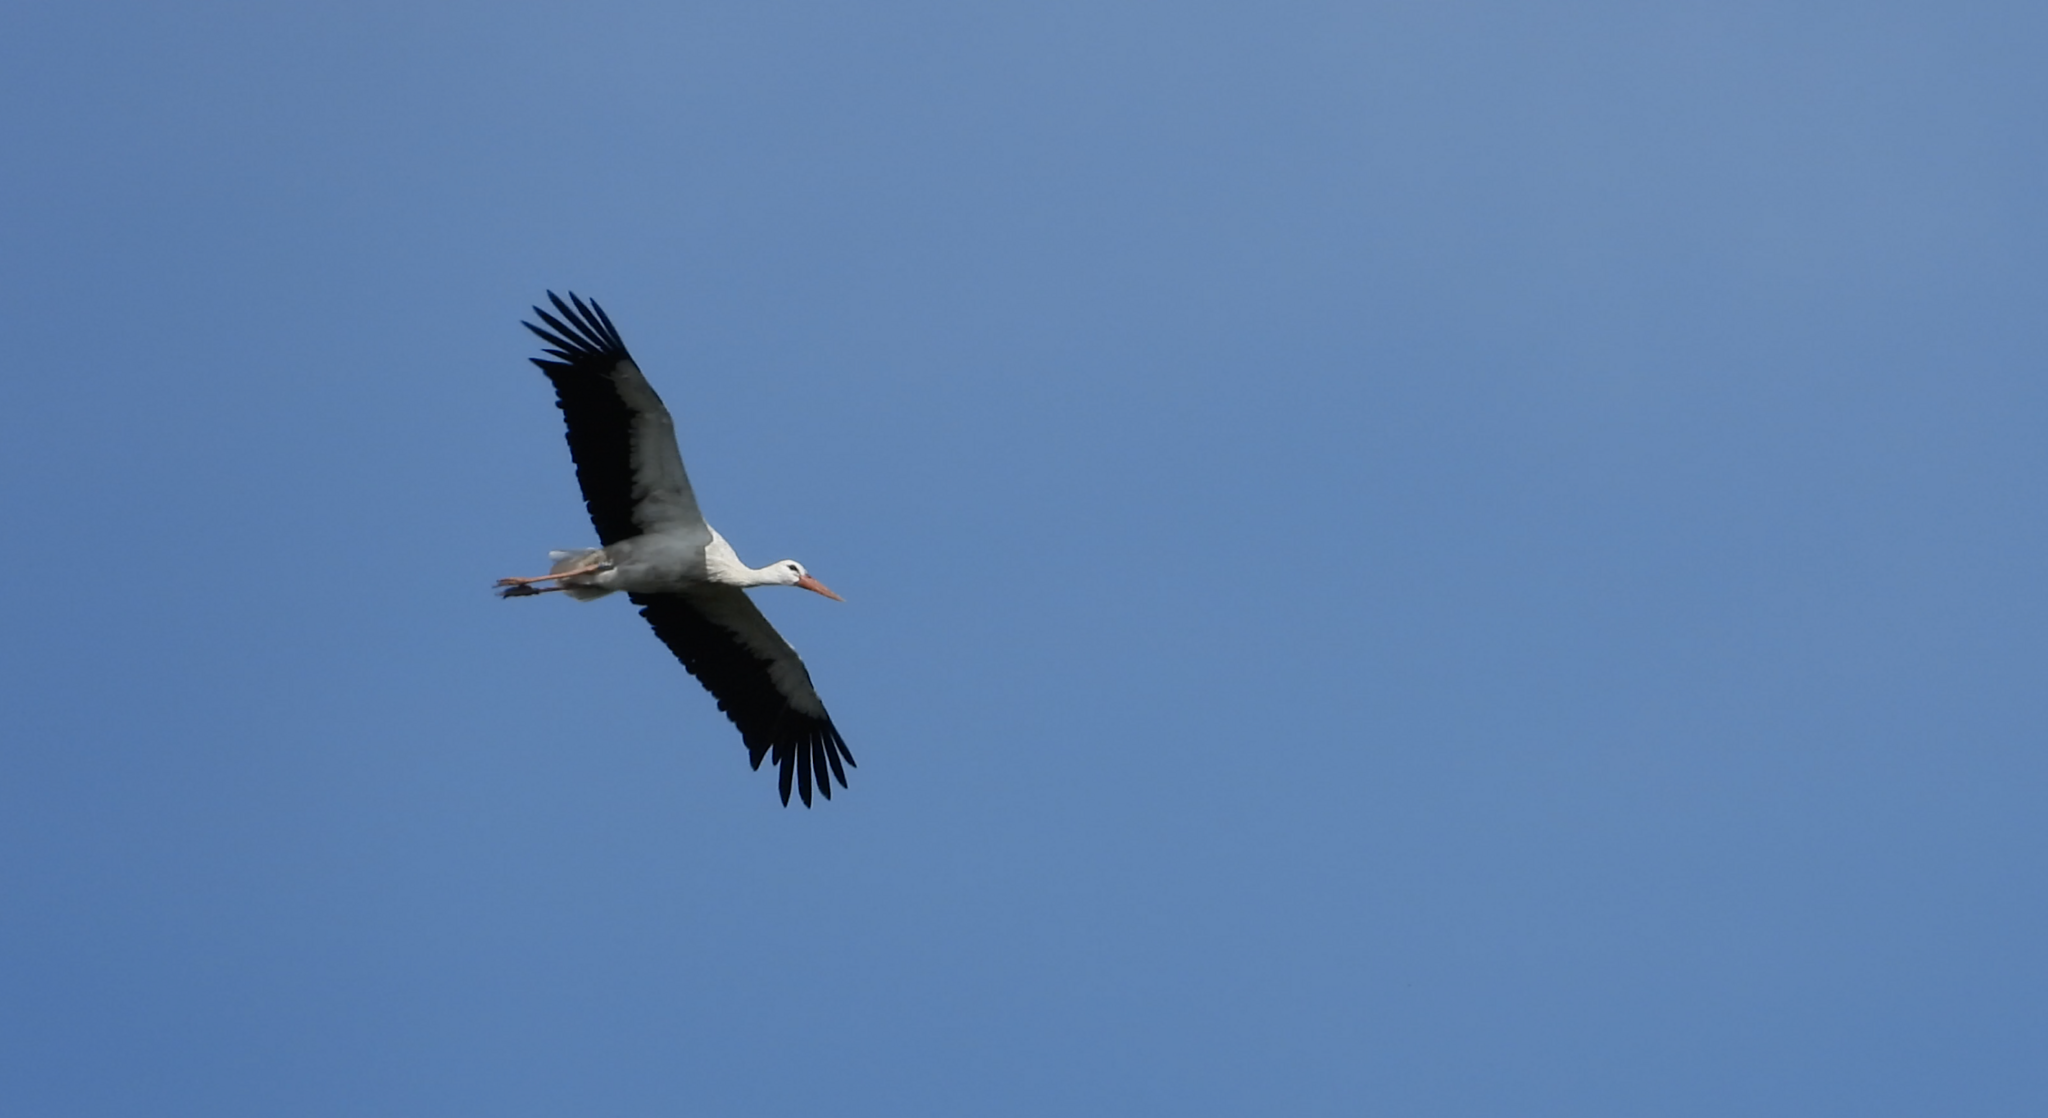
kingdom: Animalia
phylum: Chordata
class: Aves
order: Ciconiiformes
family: Ciconiidae
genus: Ciconia
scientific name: Ciconia ciconia
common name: White stork
